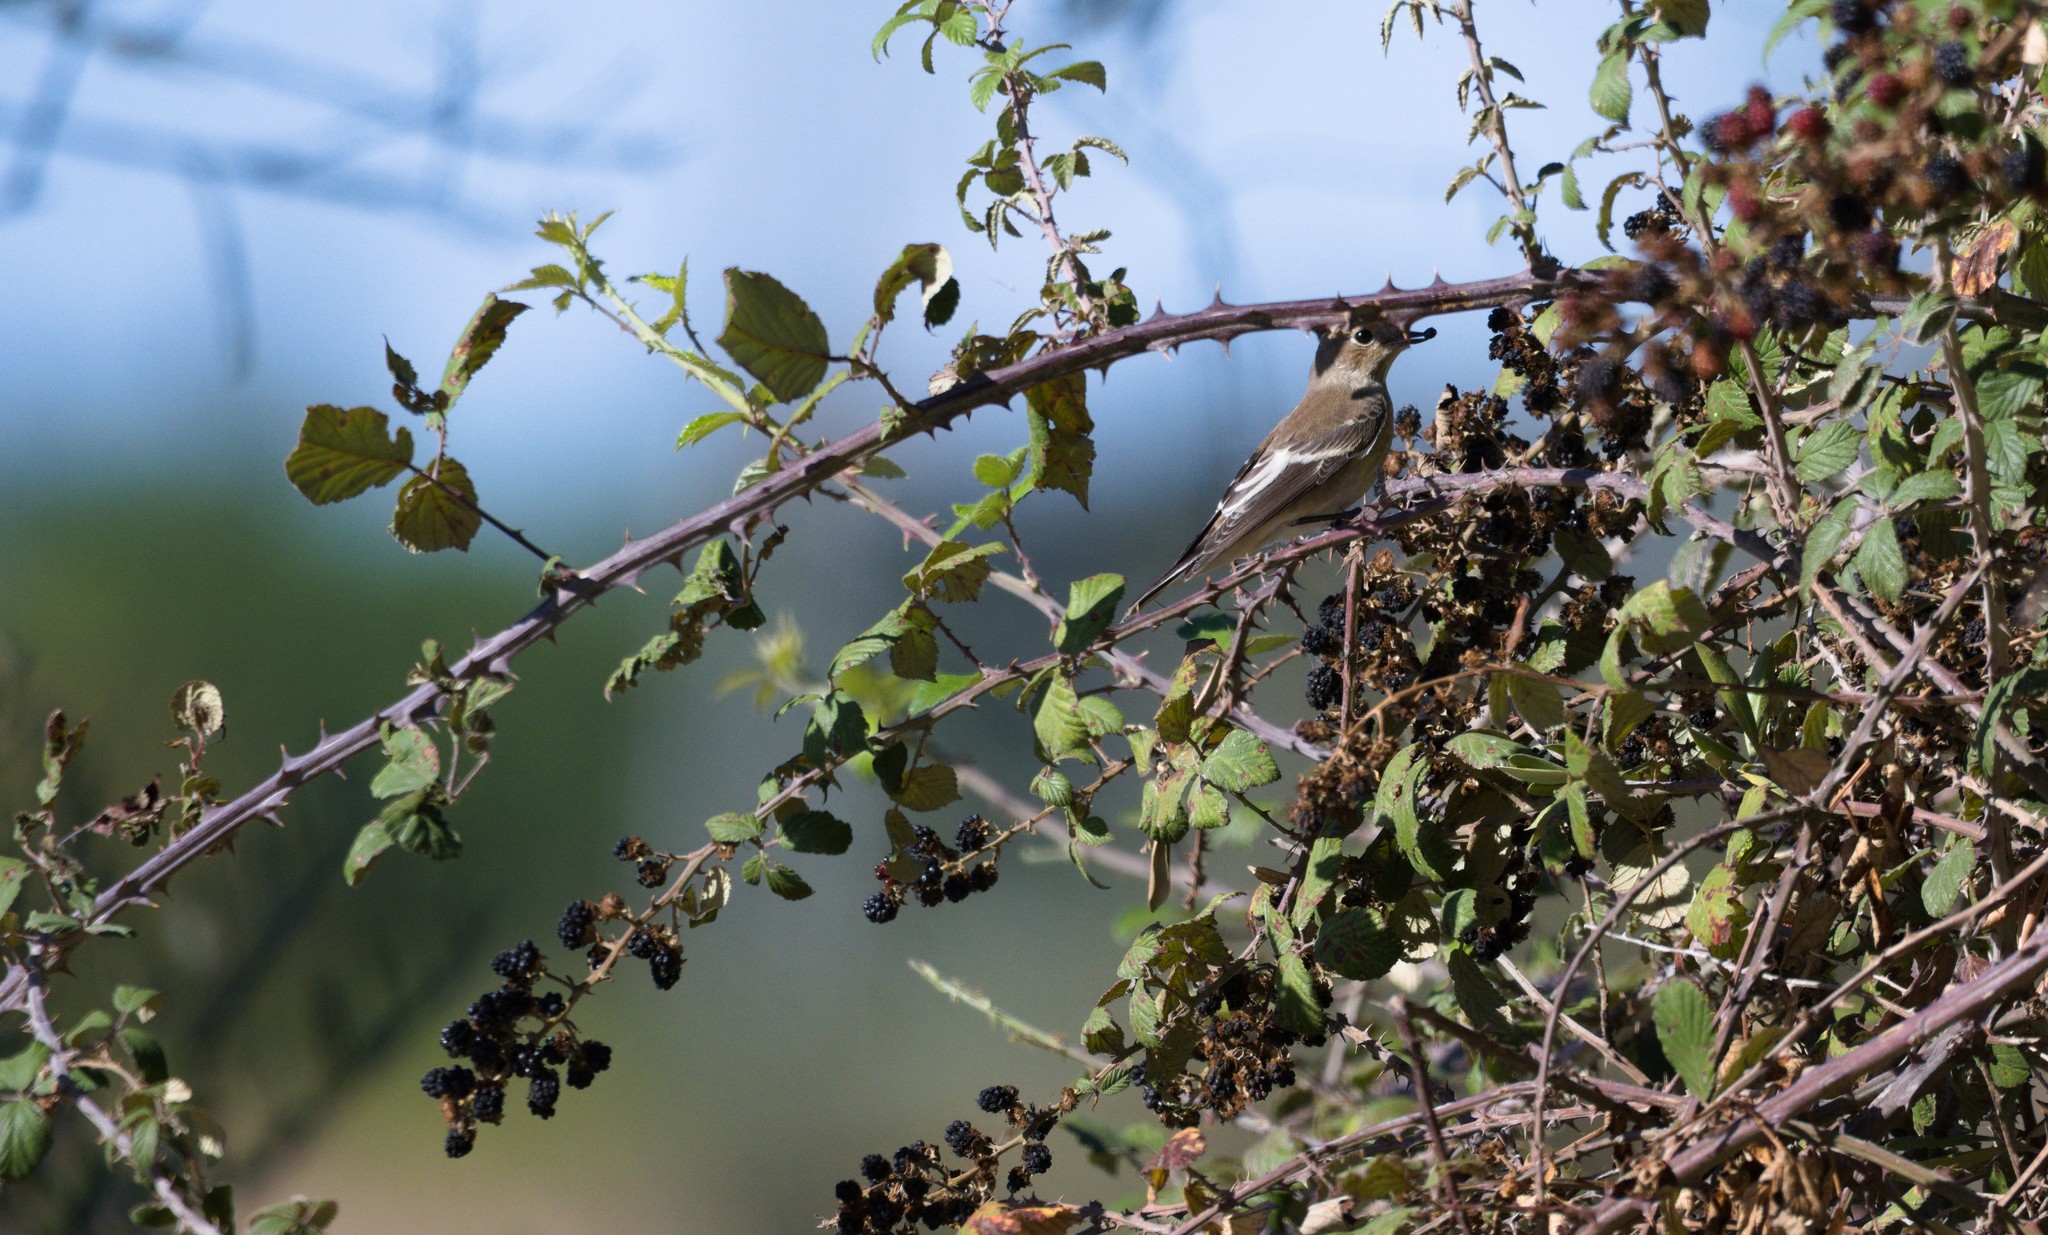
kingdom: Animalia
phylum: Chordata
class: Aves
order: Passeriformes
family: Muscicapidae
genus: Ficedula
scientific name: Ficedula hypoleuca
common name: European pied flycatcher
